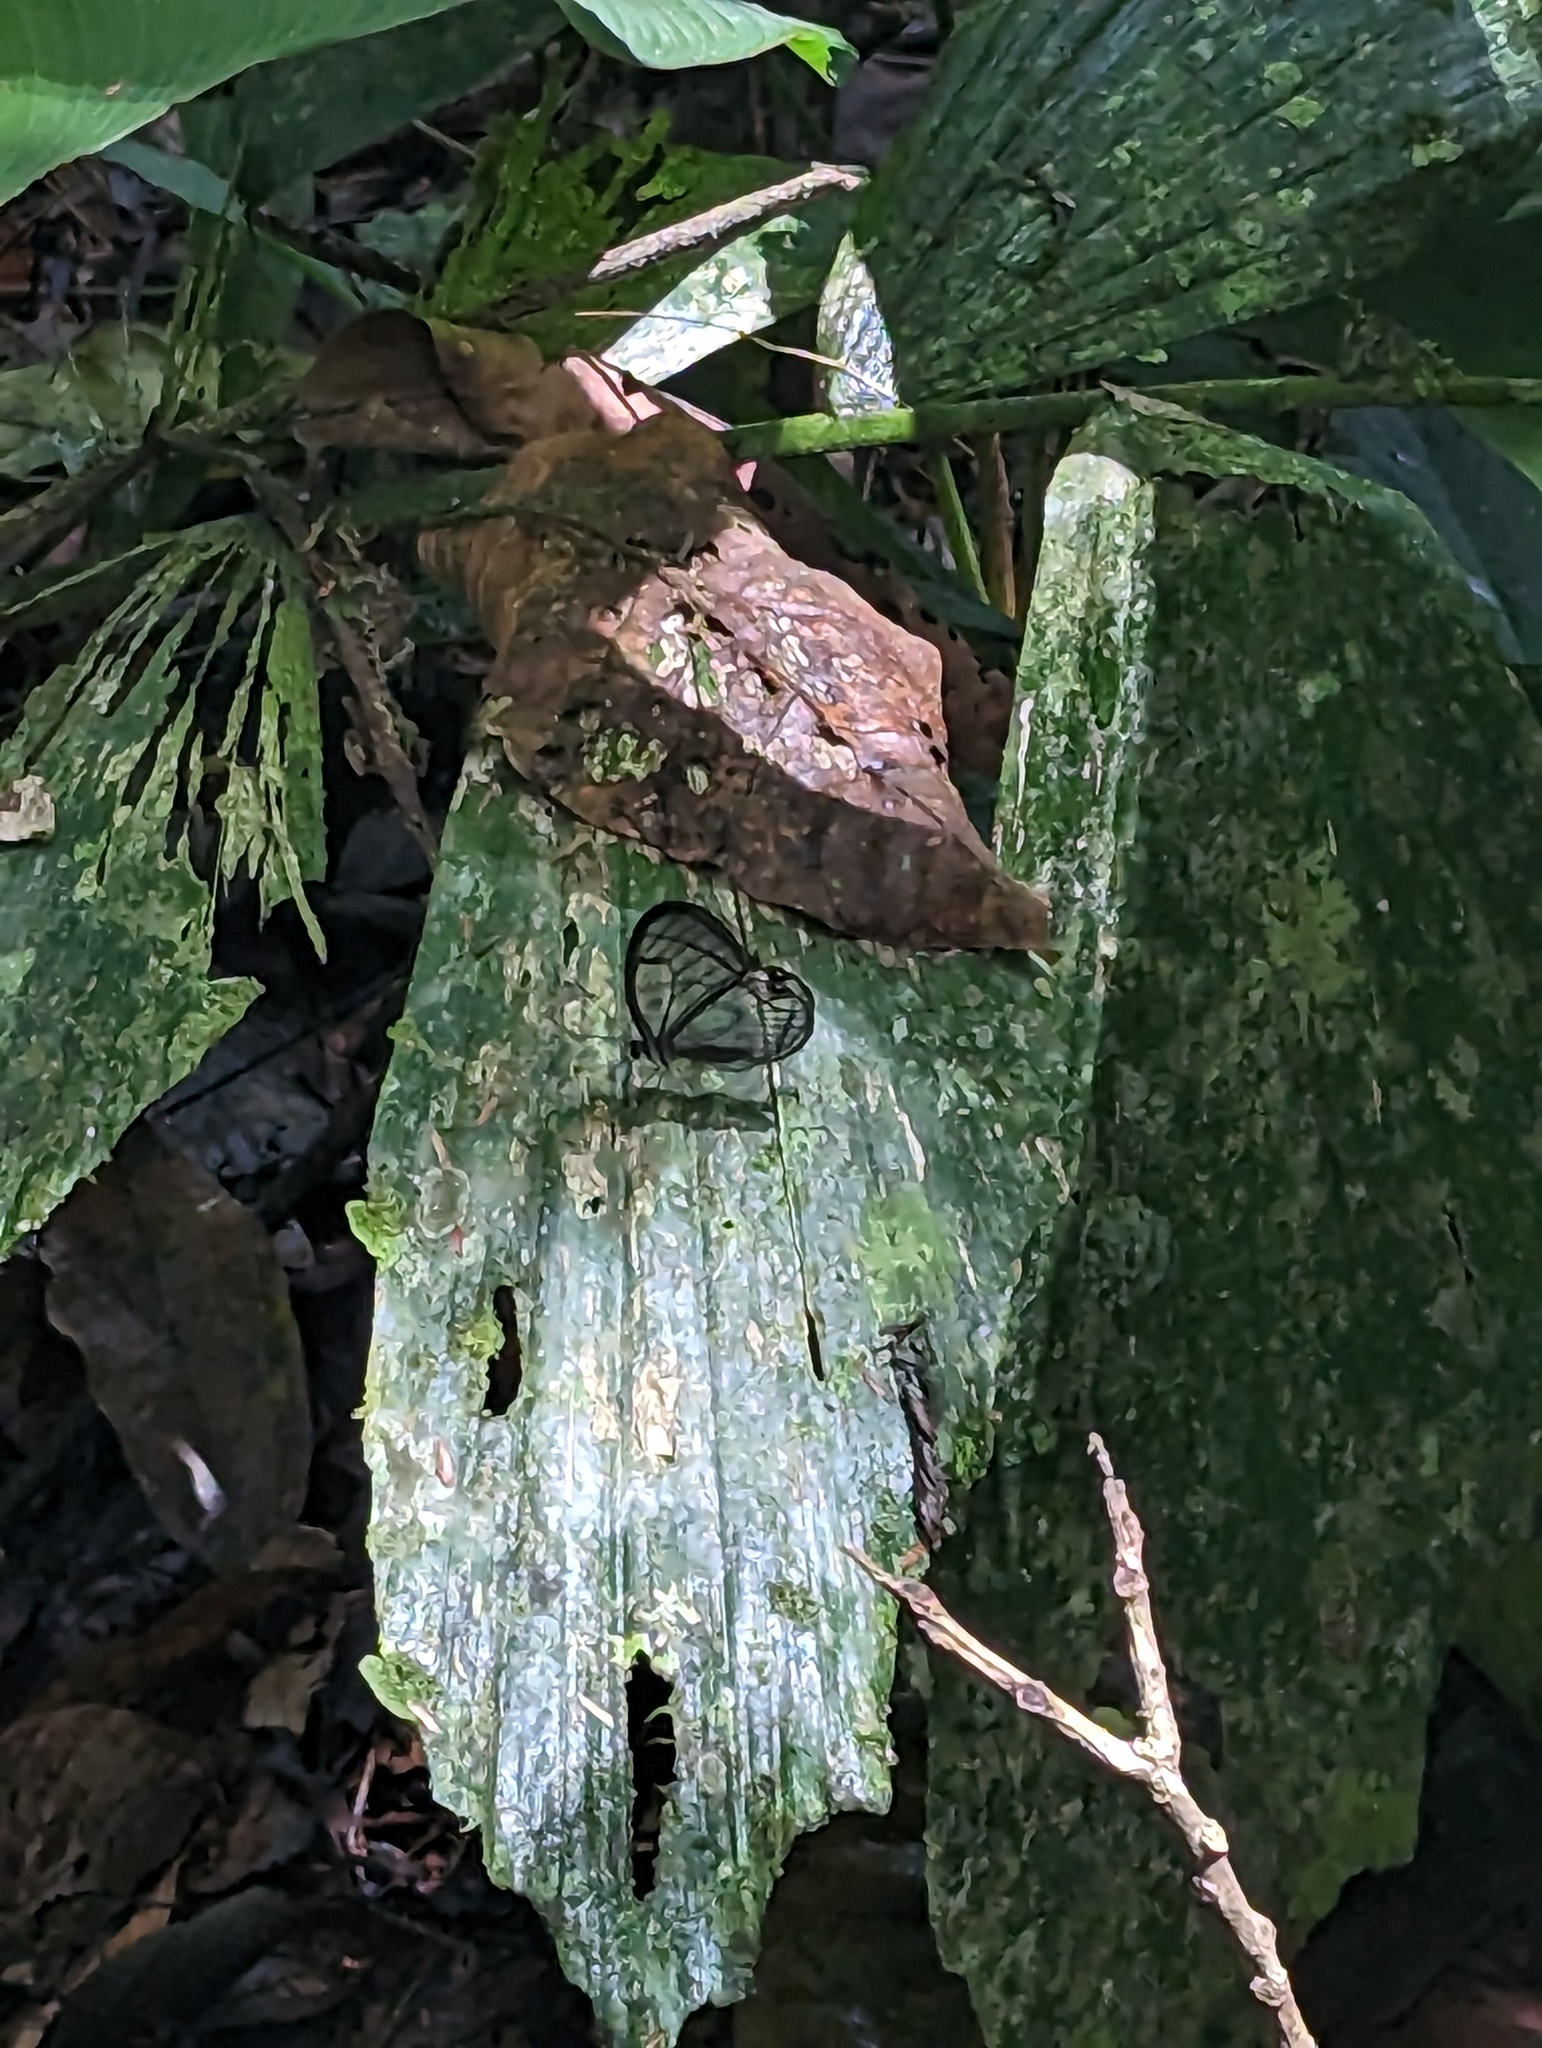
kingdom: Animalia
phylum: Arthropoda
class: Insecta
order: Lepidoptera
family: Nymphalidae
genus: Dulcedo
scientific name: Dulcedo polita
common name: Uncolored clearwing-satyr
